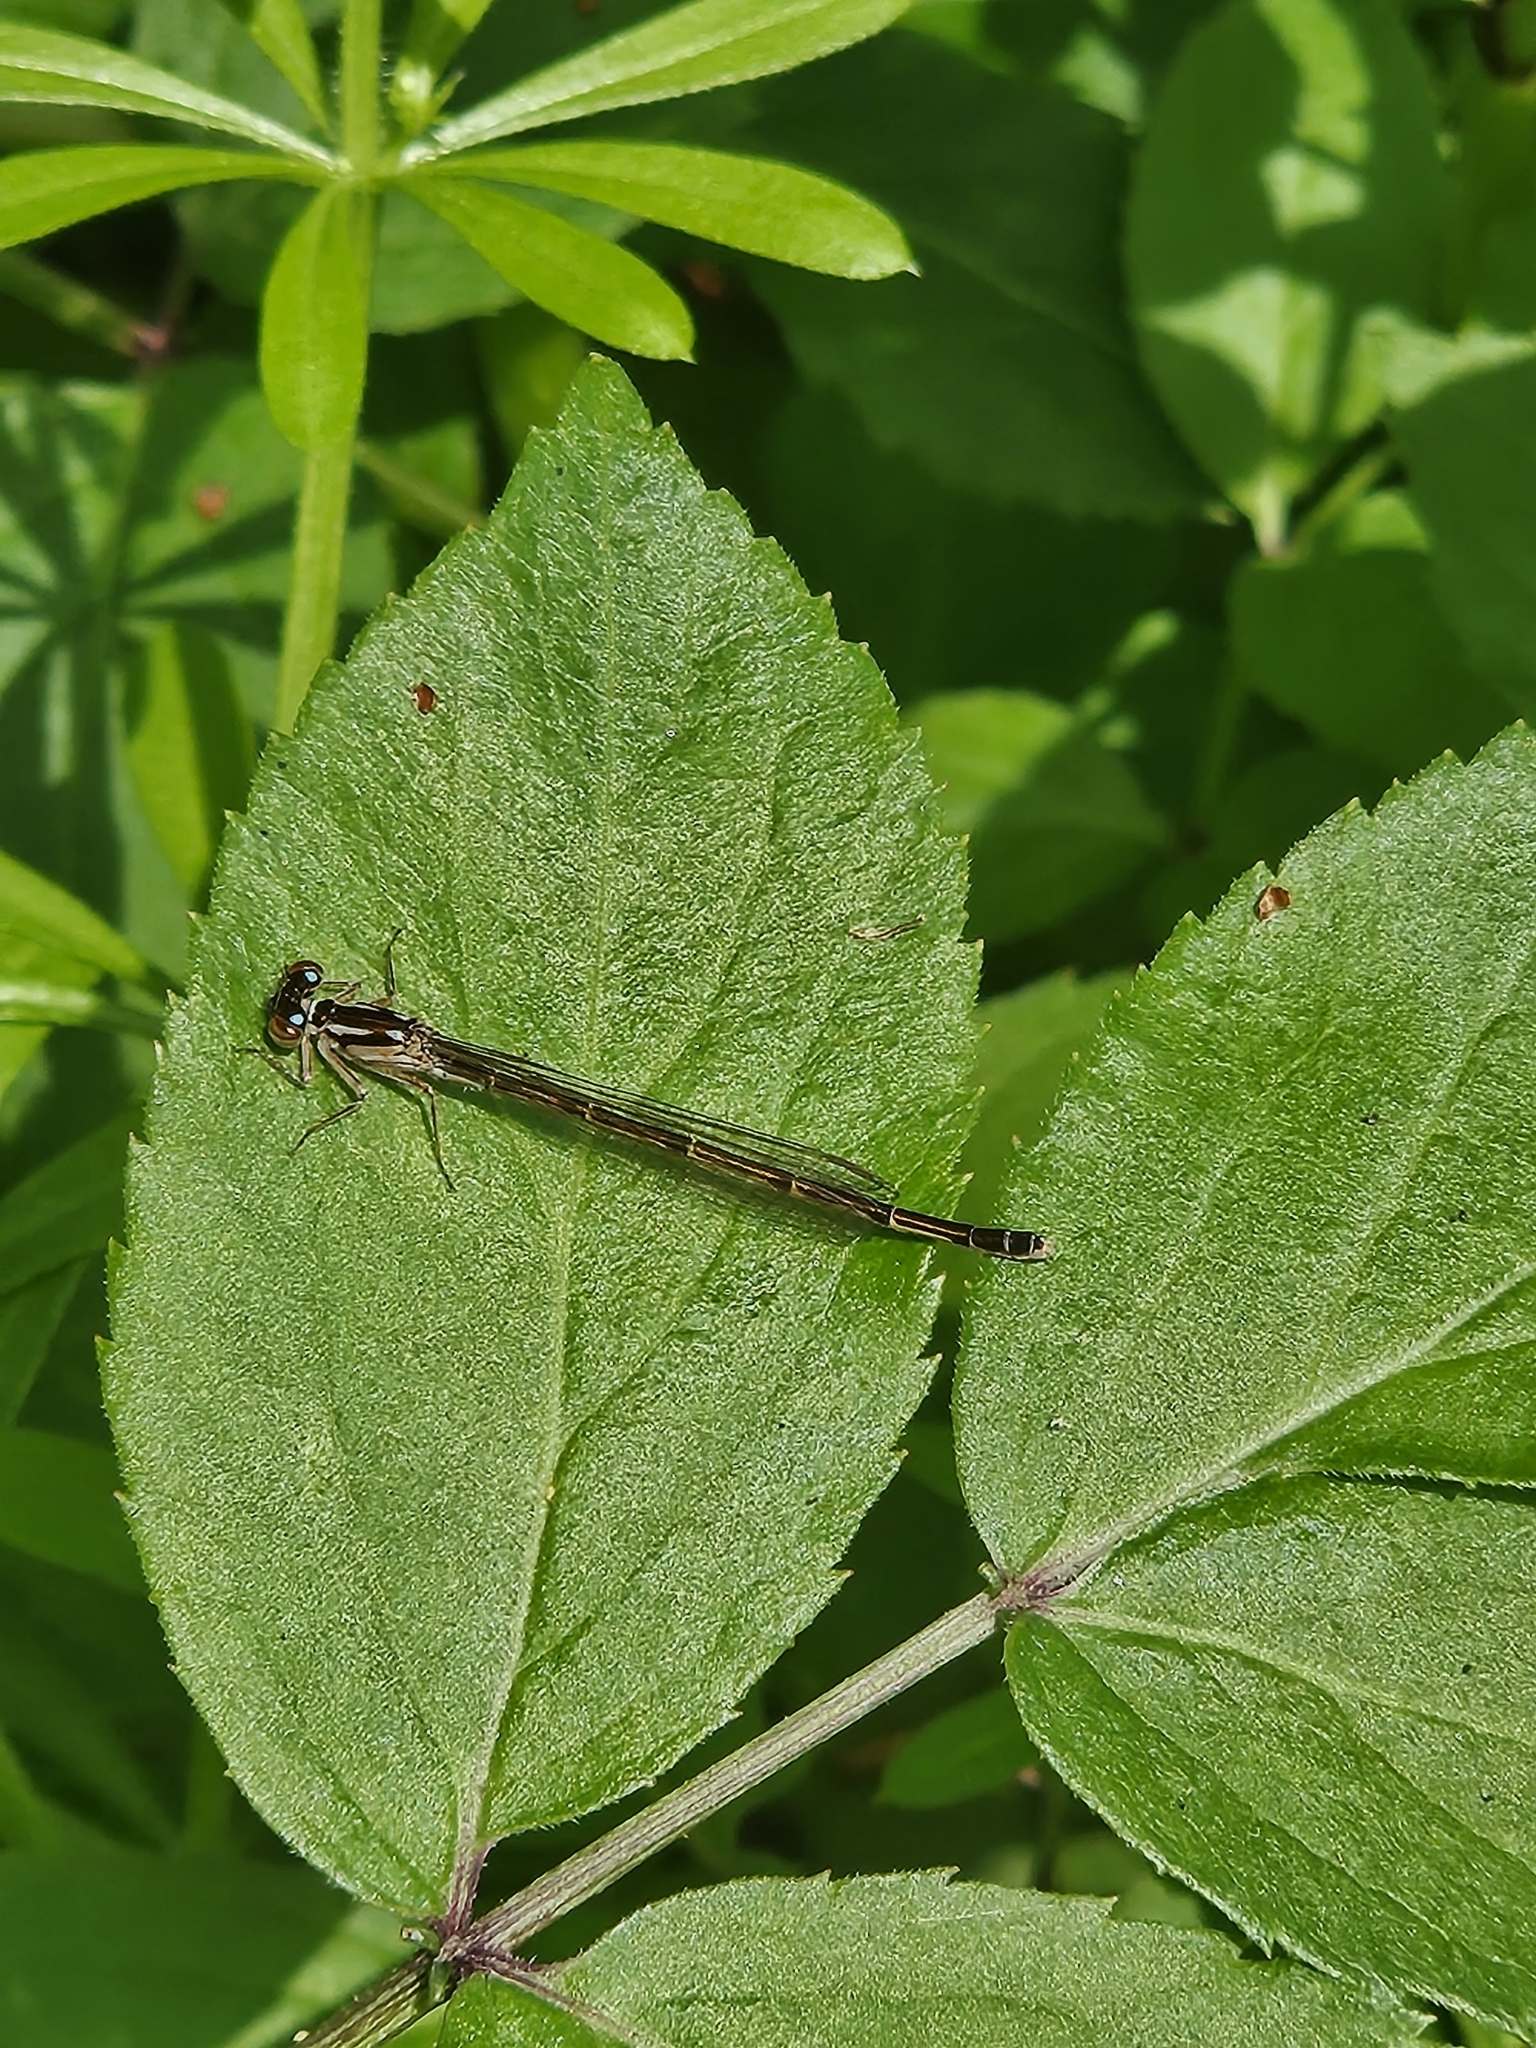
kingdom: Animalia
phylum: Arthropoda
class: Insecta
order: Odonata
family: Coenagrionidae
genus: Ischnura
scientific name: Ischnura posita
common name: Fragile forktail
